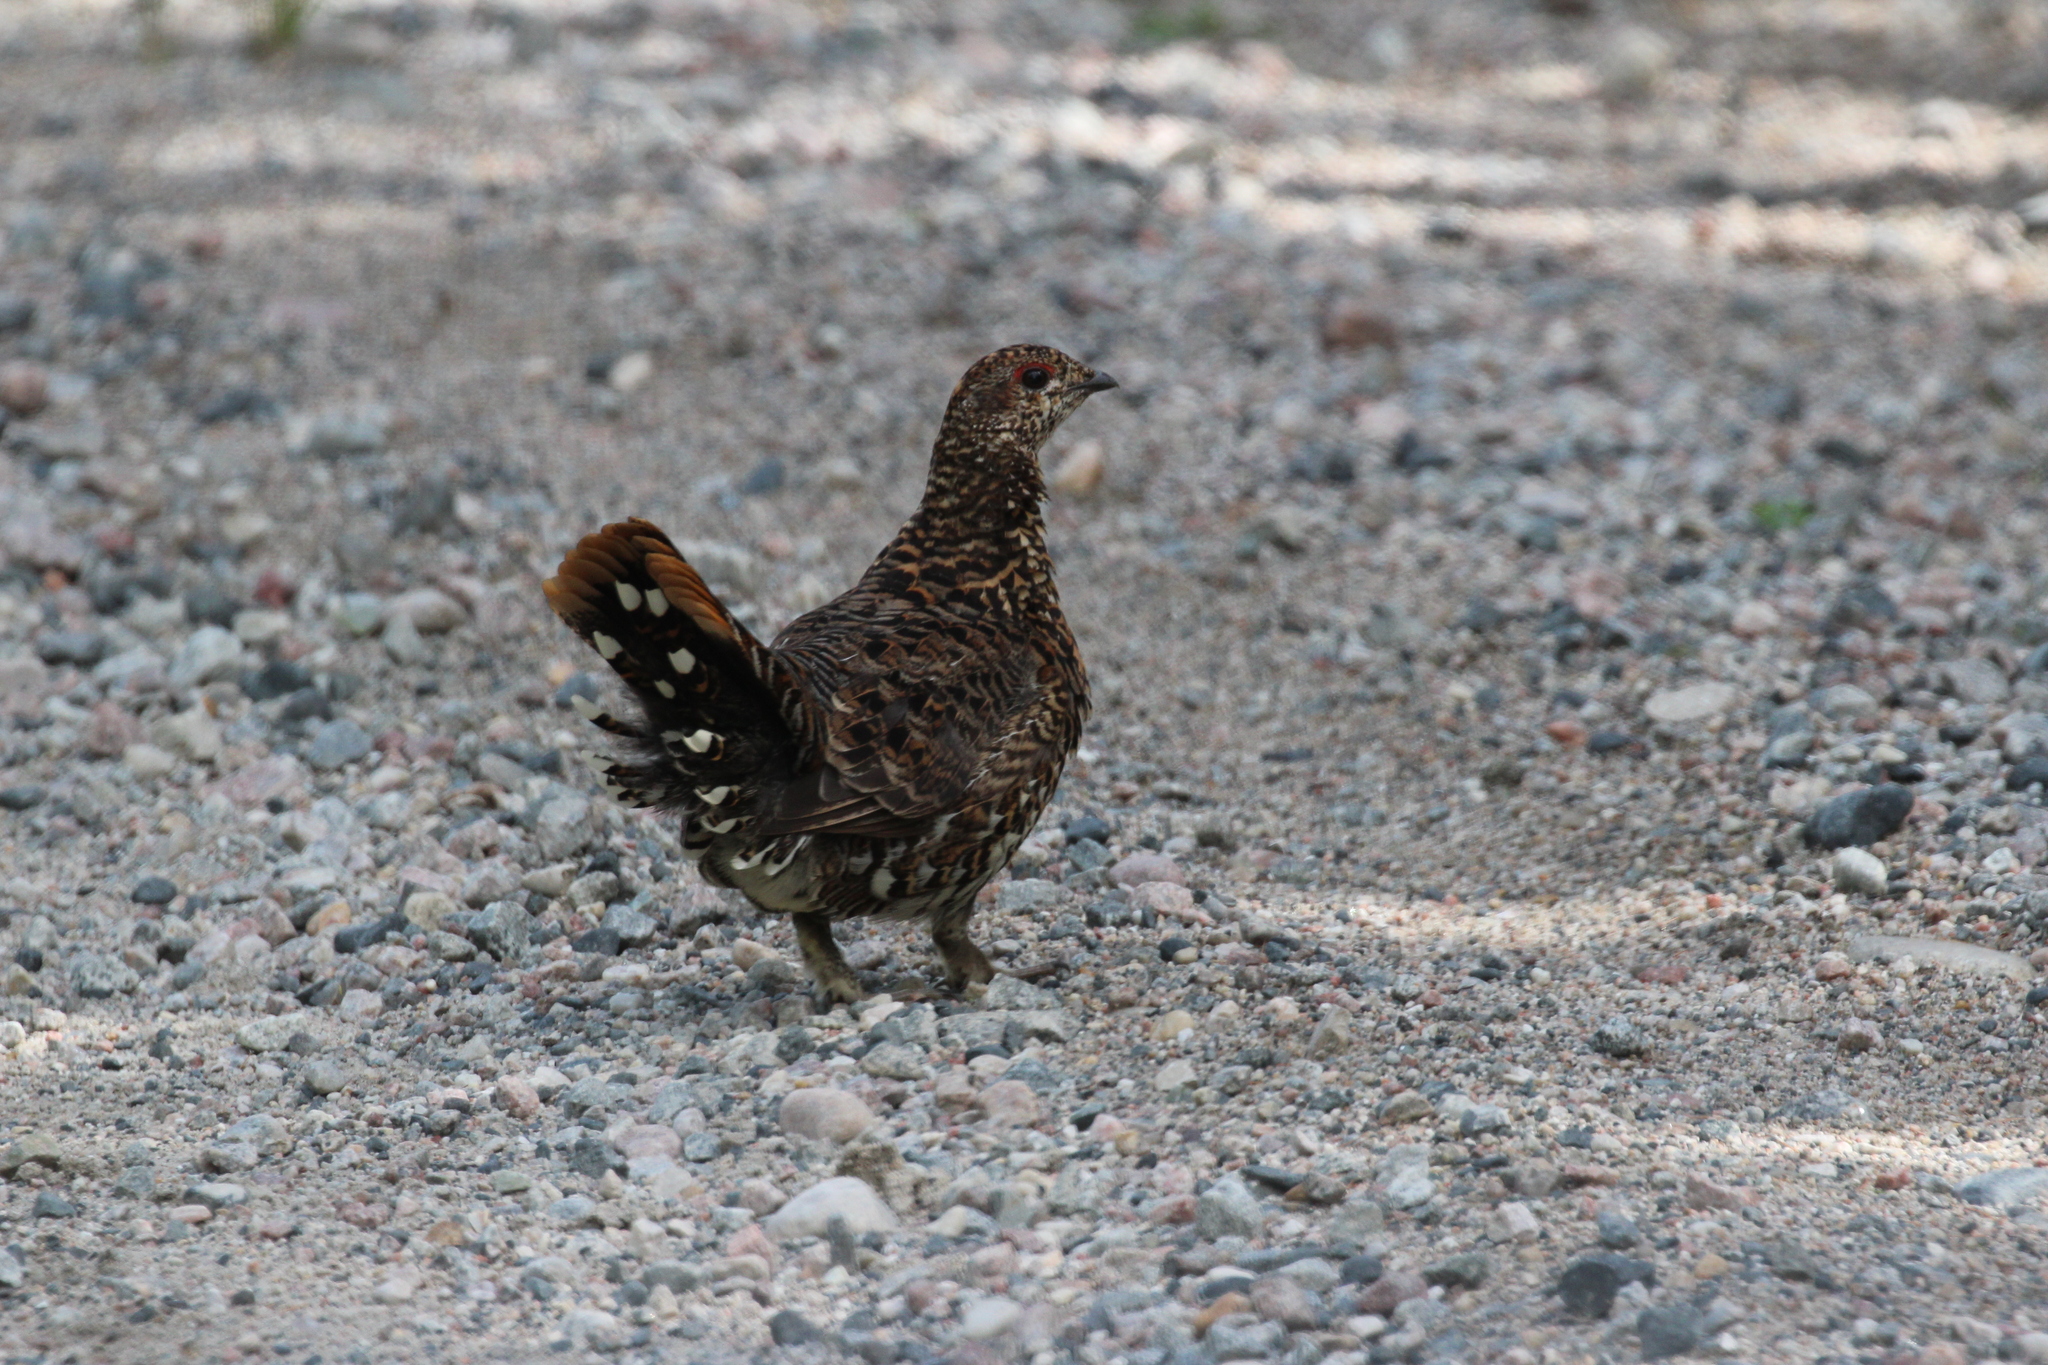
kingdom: Animalia
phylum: Chordata
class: Aves
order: Galliformes
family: Phasianidae
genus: Canachites
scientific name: Canachites canadensis
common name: Spruce grouse
